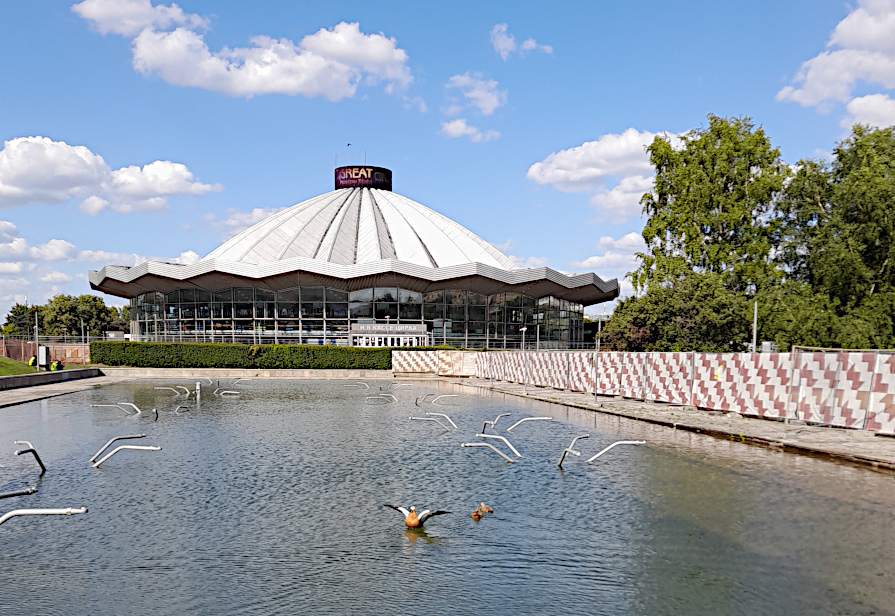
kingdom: Animalia
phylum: Chordata
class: Aves
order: Anseriformes
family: Anatidae
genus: Tadorna
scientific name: Tadorna ferruginea
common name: Ruddy shelduck
